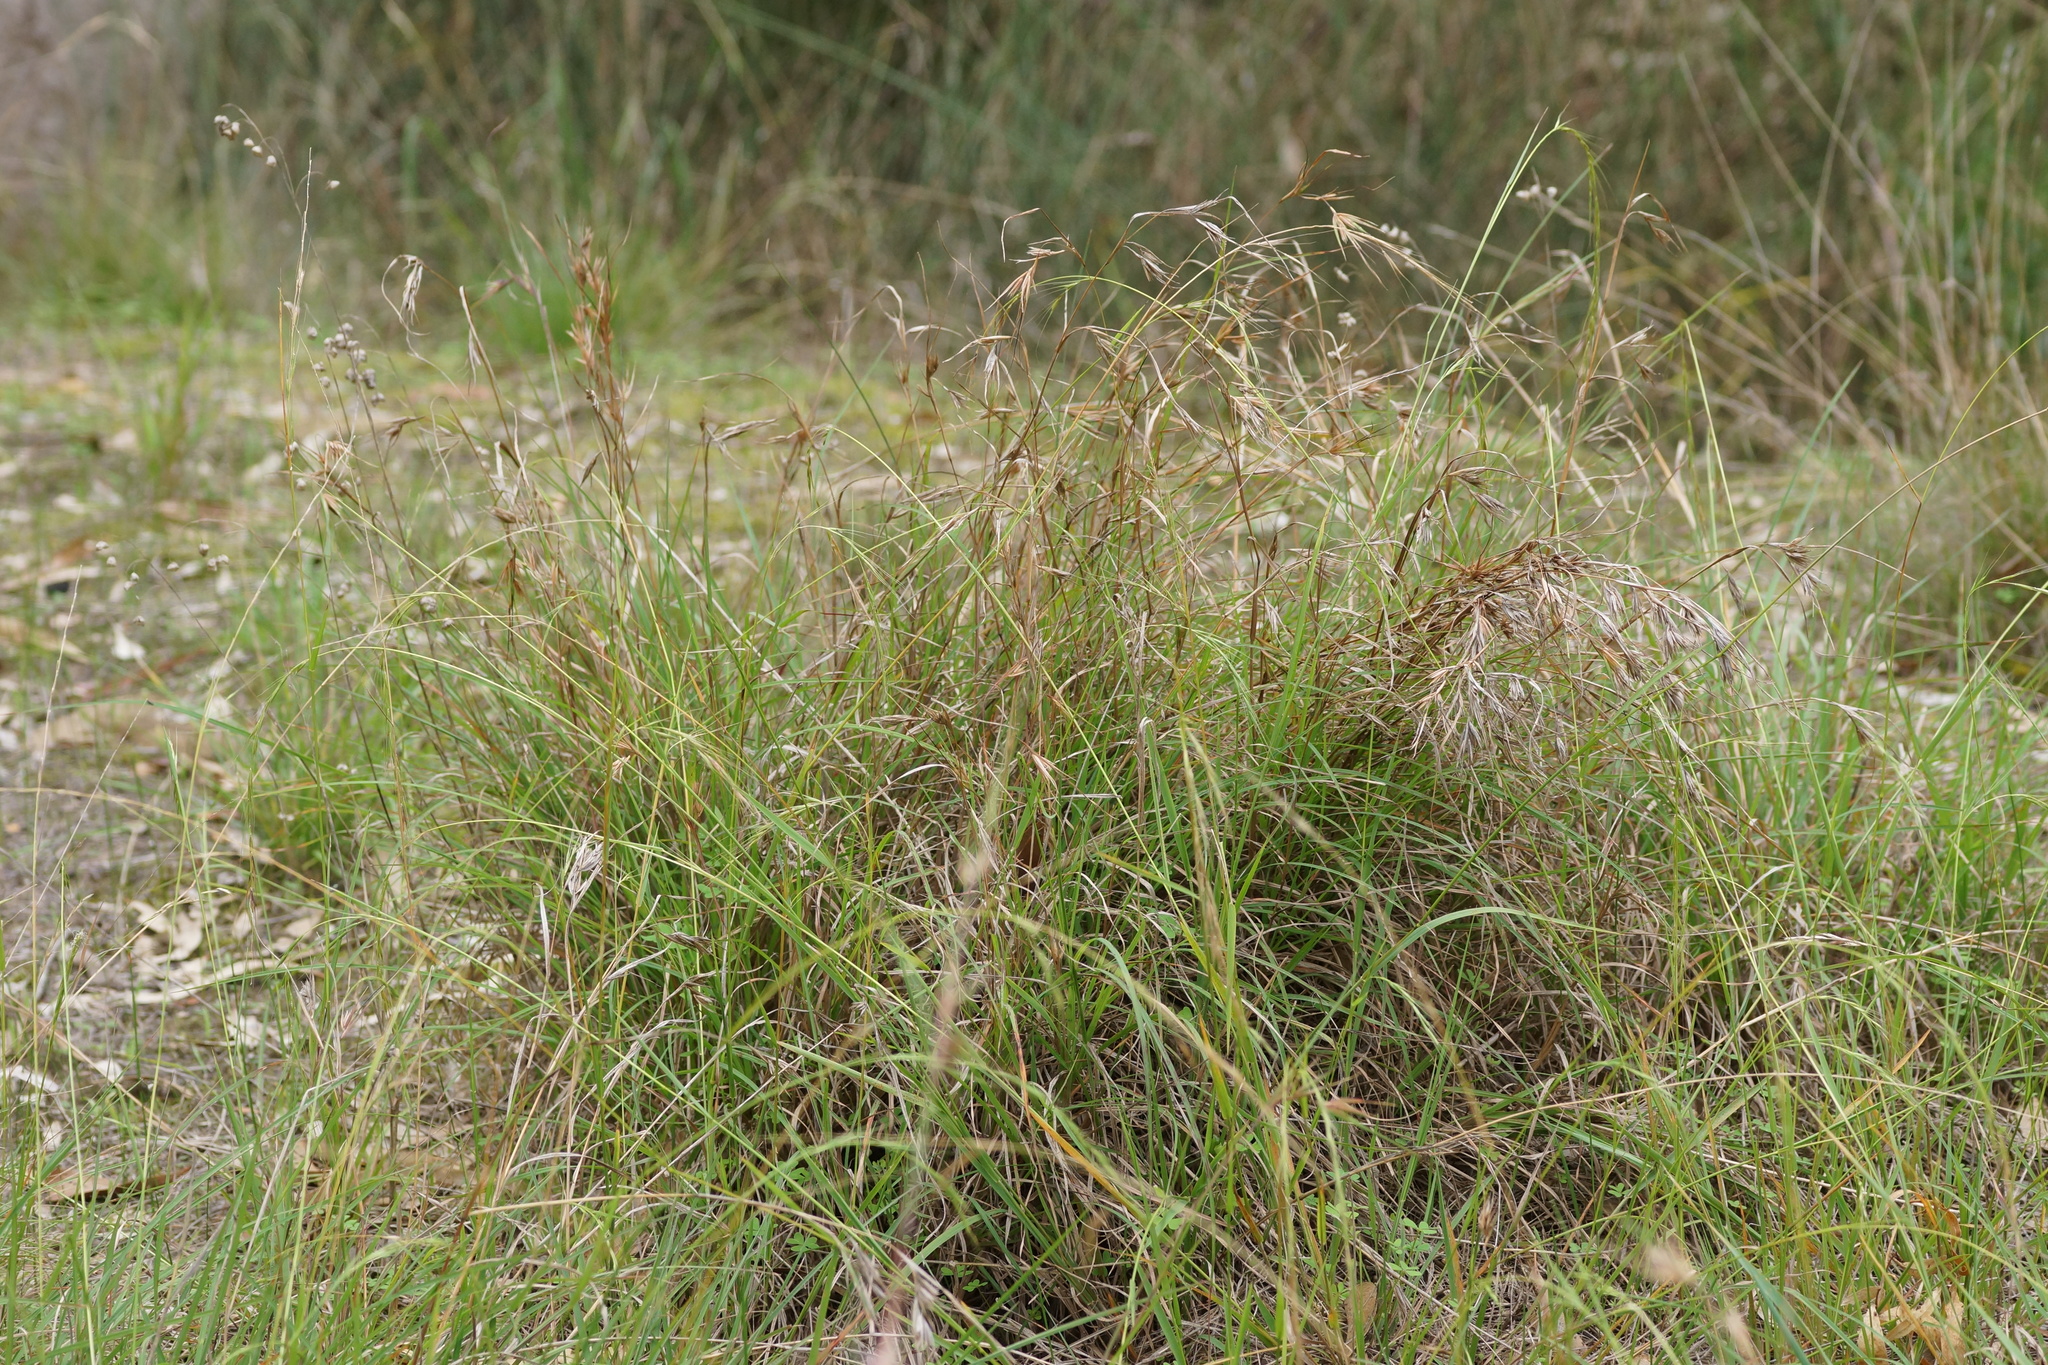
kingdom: Plantae
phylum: Tracheophyta
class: Liliopsida
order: Poales
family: Poaceae
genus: Themeda
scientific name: Themeda triandra
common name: Kangaroo grass
